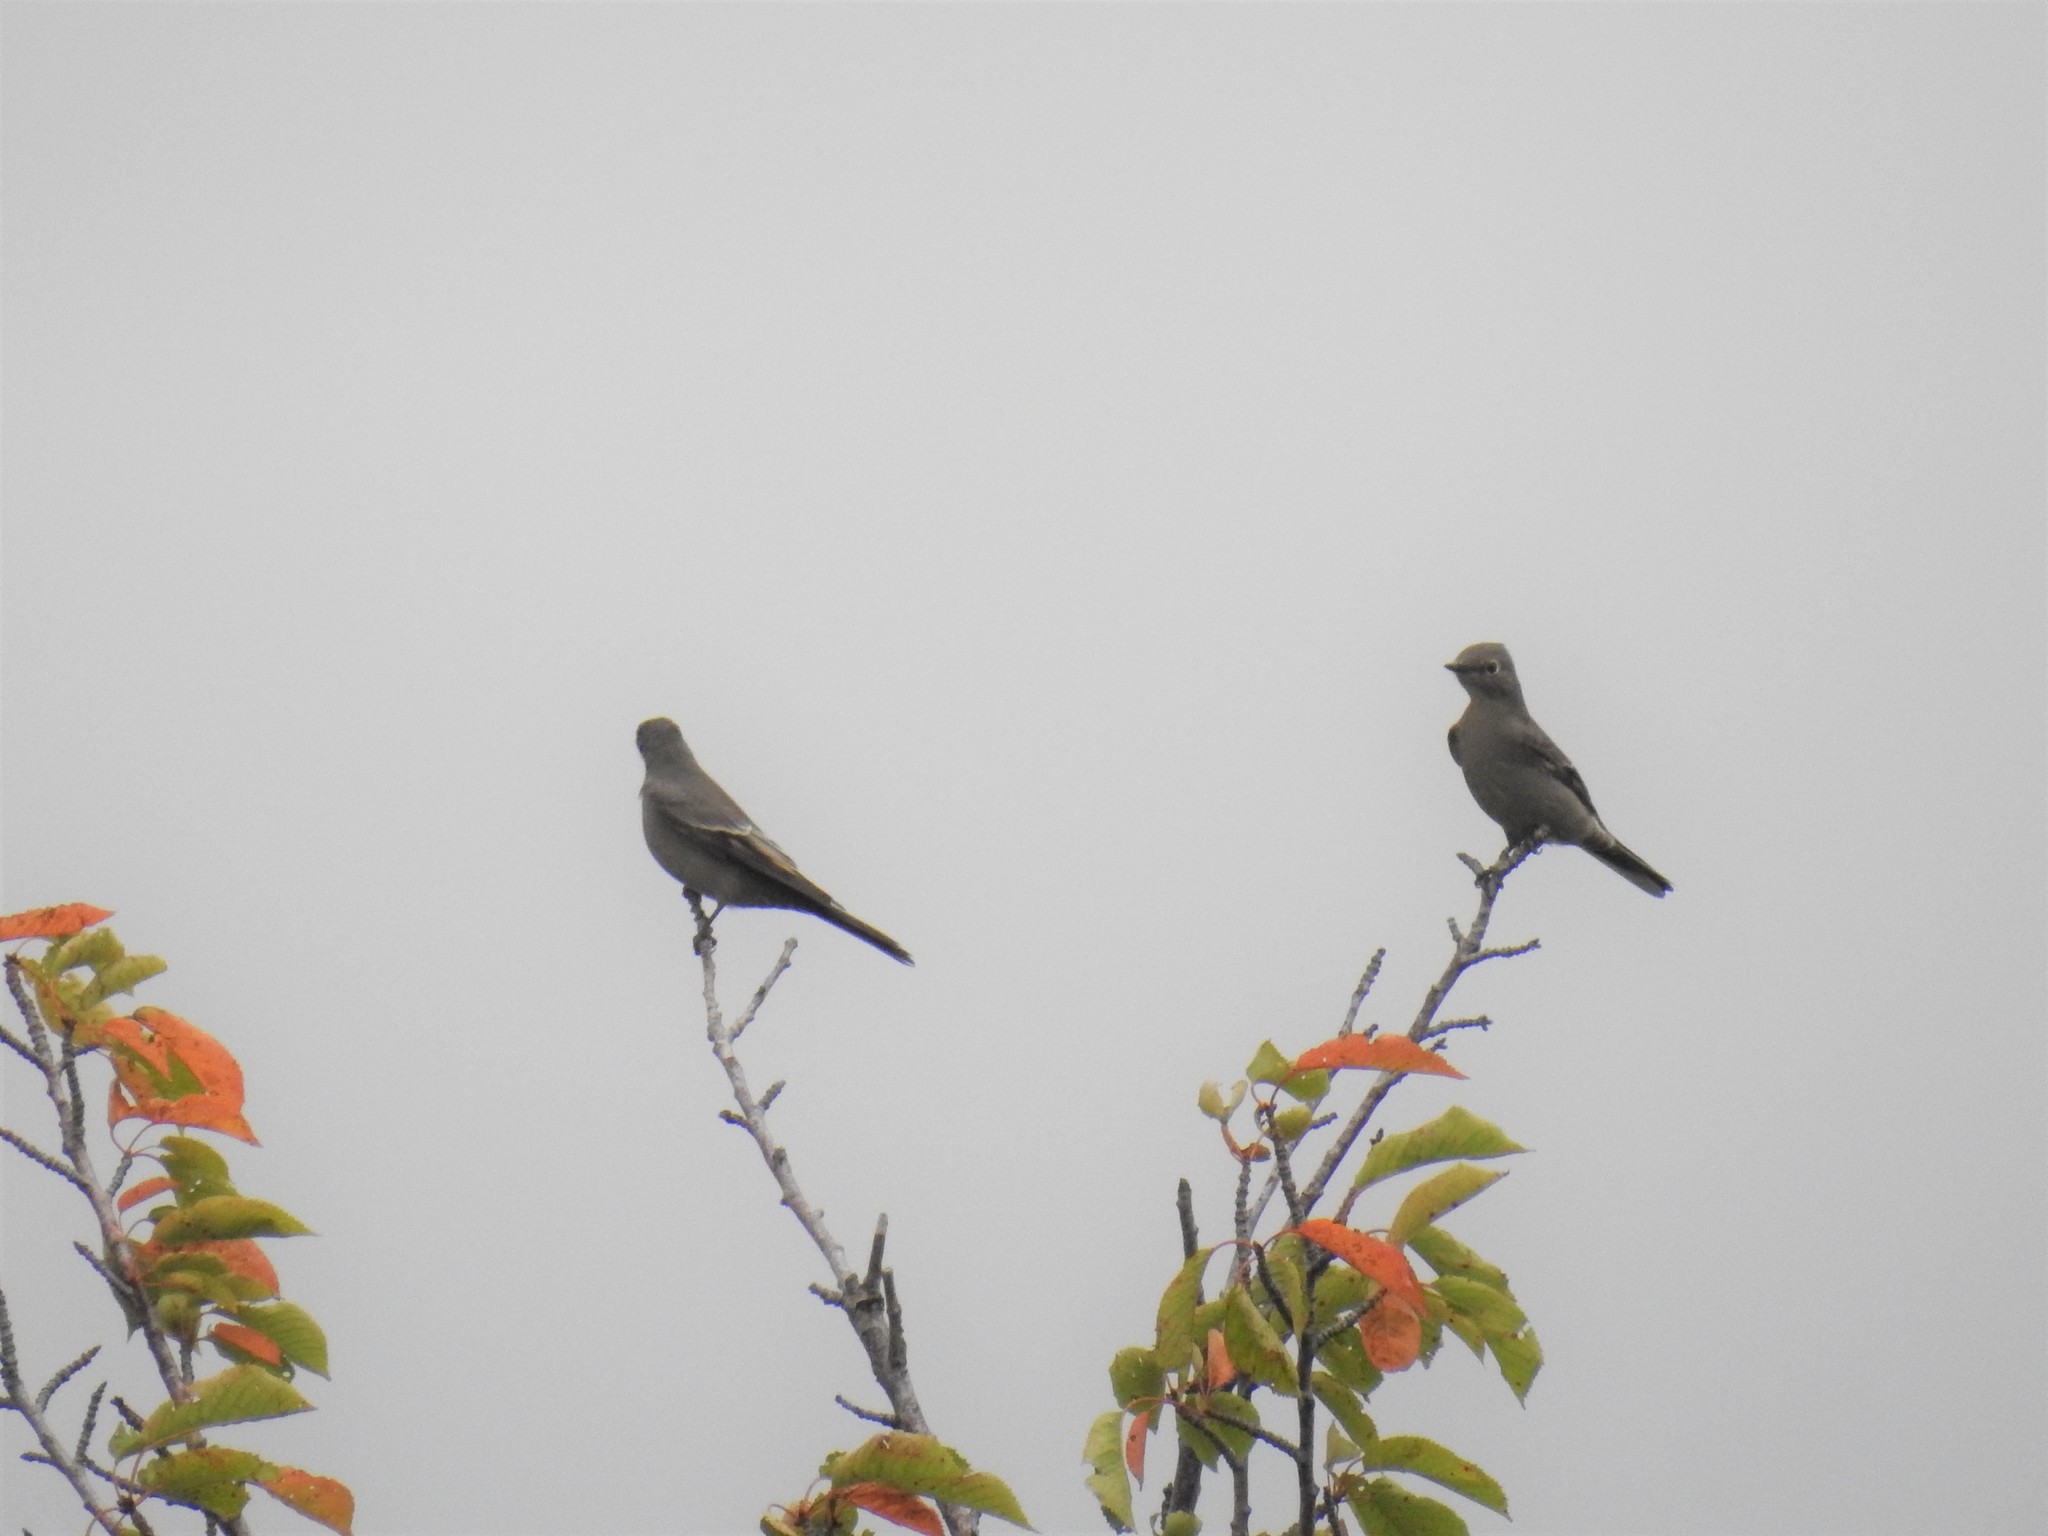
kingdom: Animalia
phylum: Chordata
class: Aves
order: Passeriformes
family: Turdidae
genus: Myadestes
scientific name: Myadestes townsendi
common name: Townsend's solitaire
